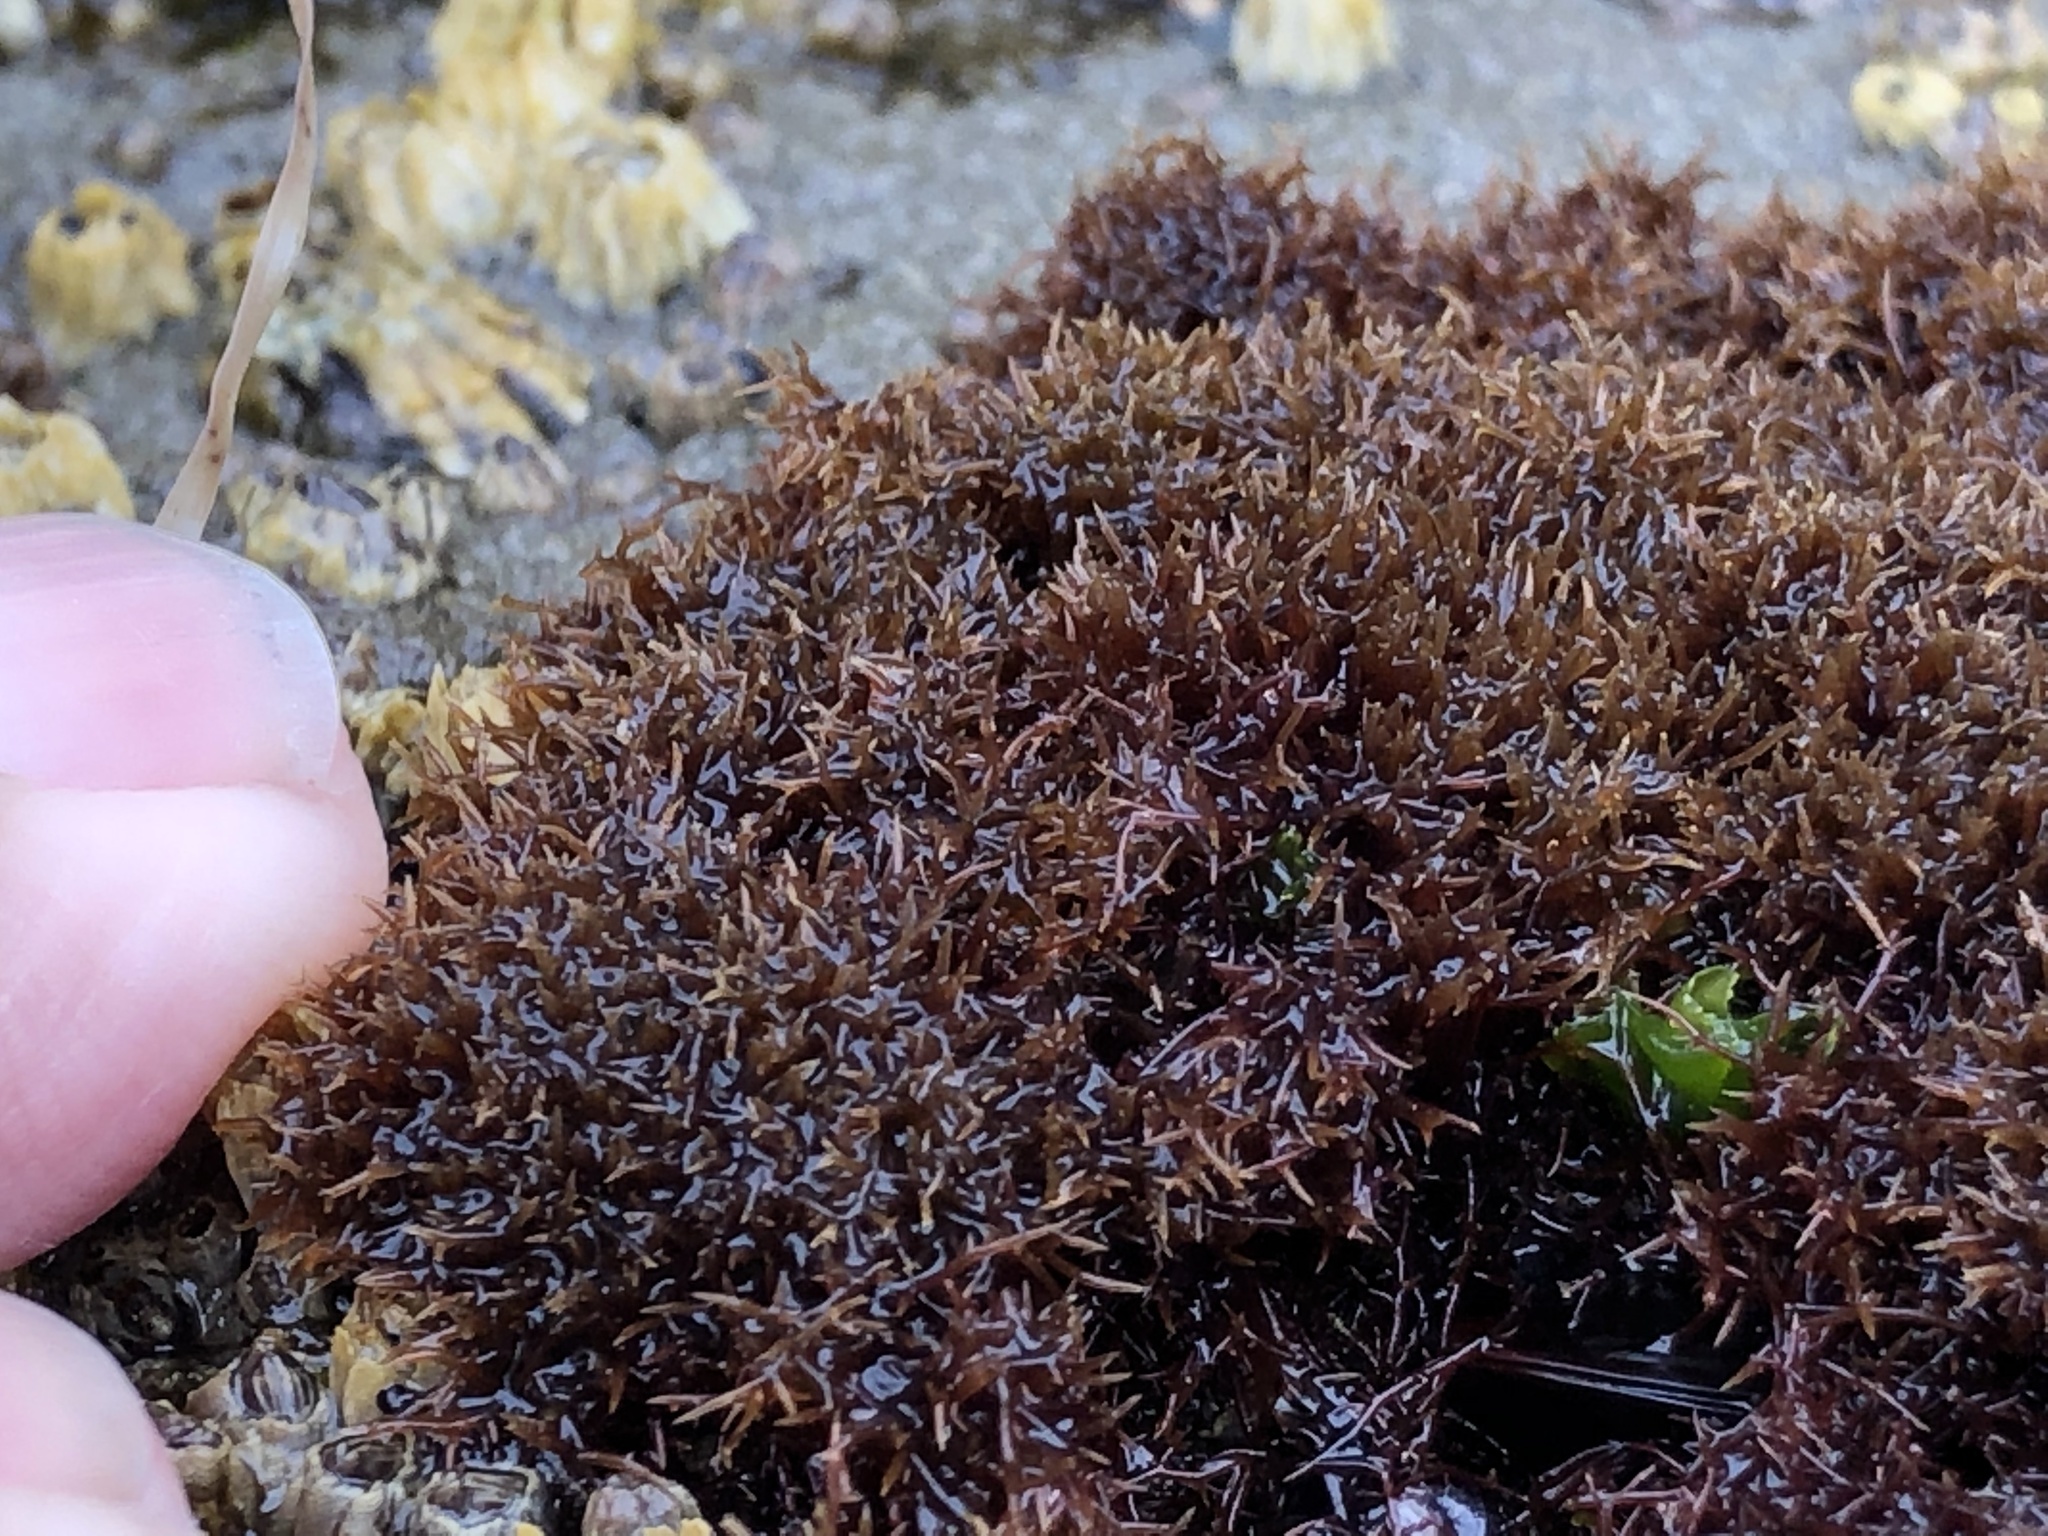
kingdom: Plantae
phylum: Rhodophyta
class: Florideophyceae
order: Gigartinales
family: Caulacanthaceae
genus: Caulacanthus
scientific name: Caulacanthus ustulatus
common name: Red algae
